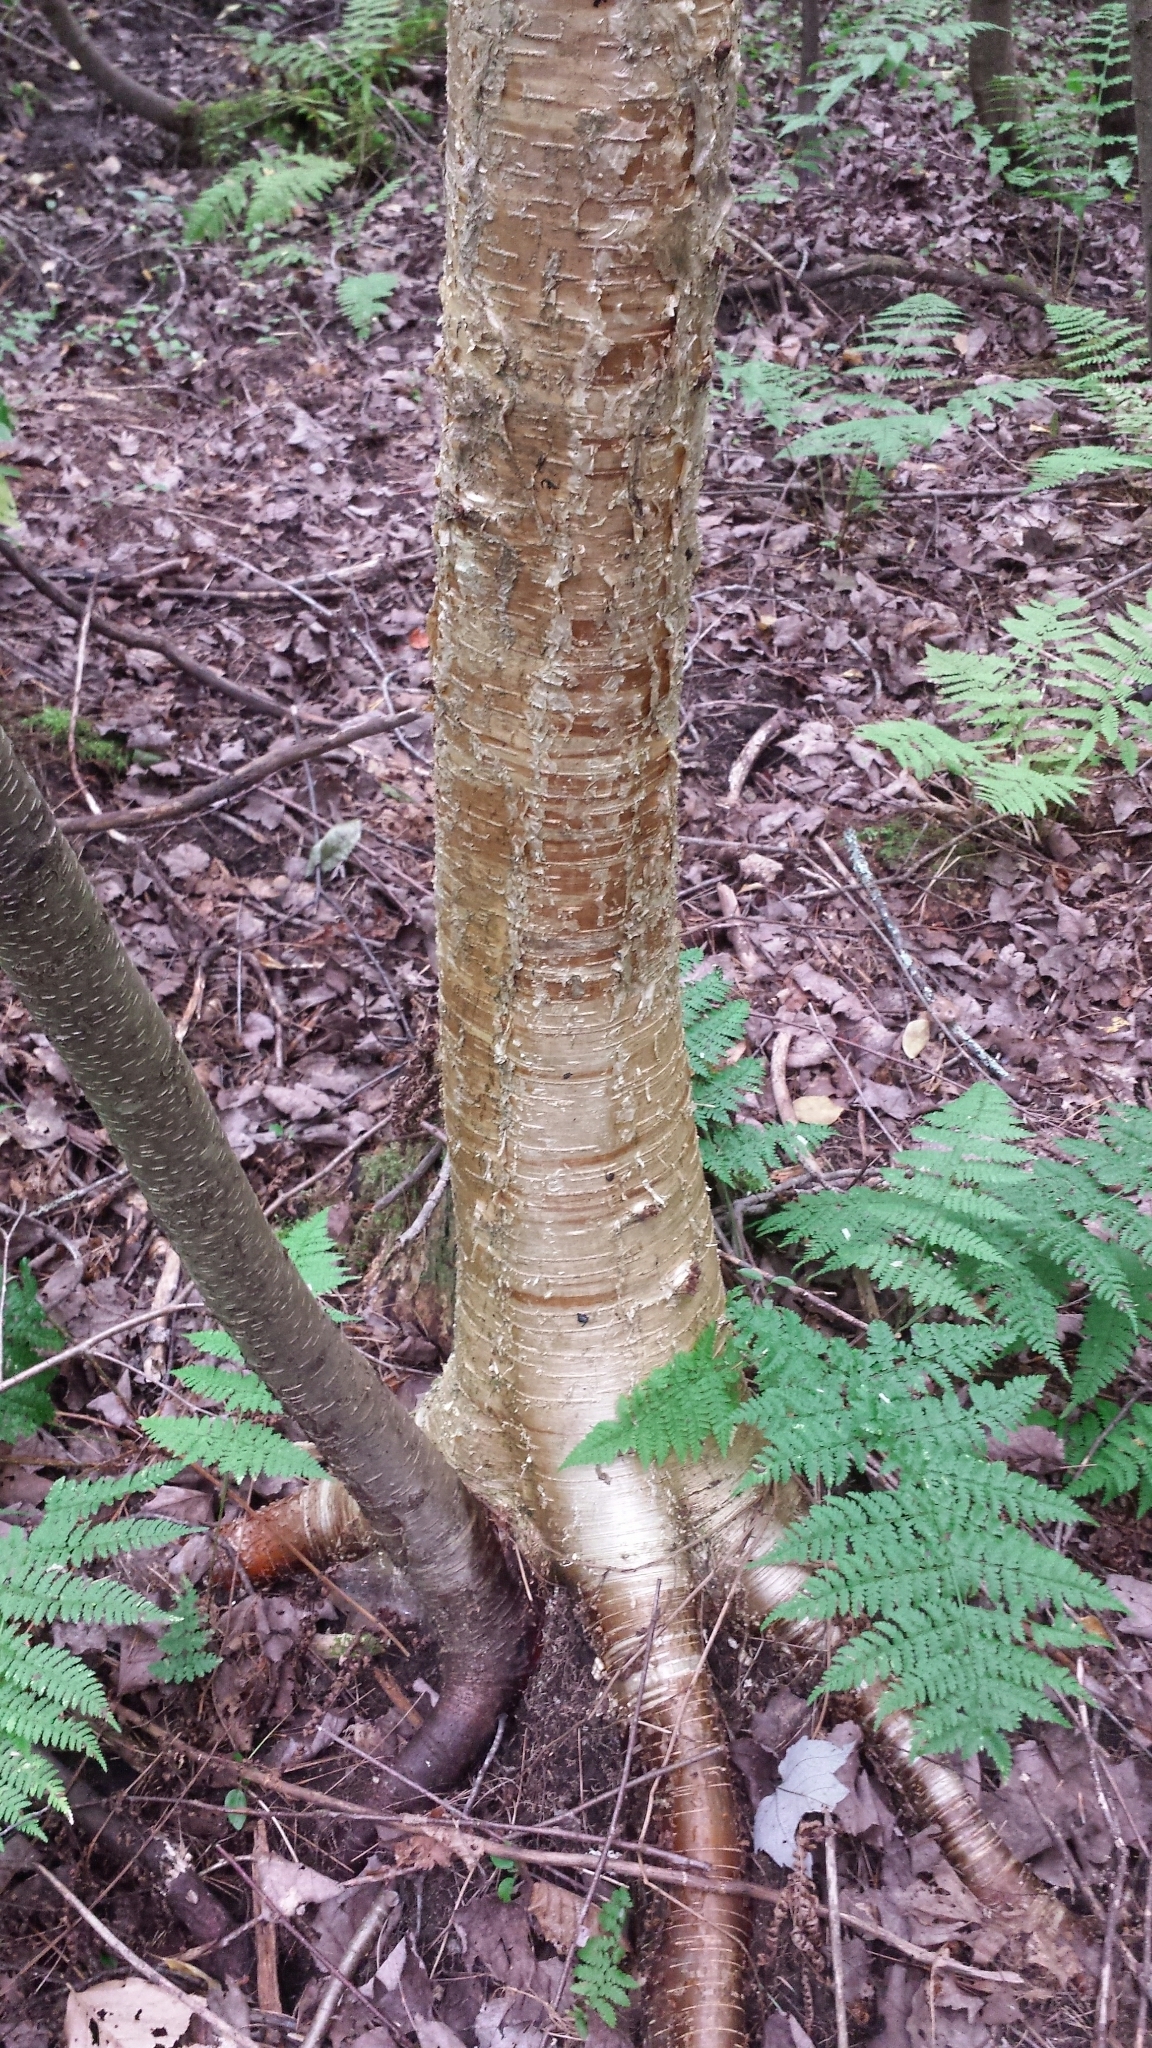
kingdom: Plantae
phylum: Tracheophyta
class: Magnoliopsida
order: Fagales
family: Betulaceae
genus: Betula
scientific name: Betula alleghaniensis
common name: Yellow birch
